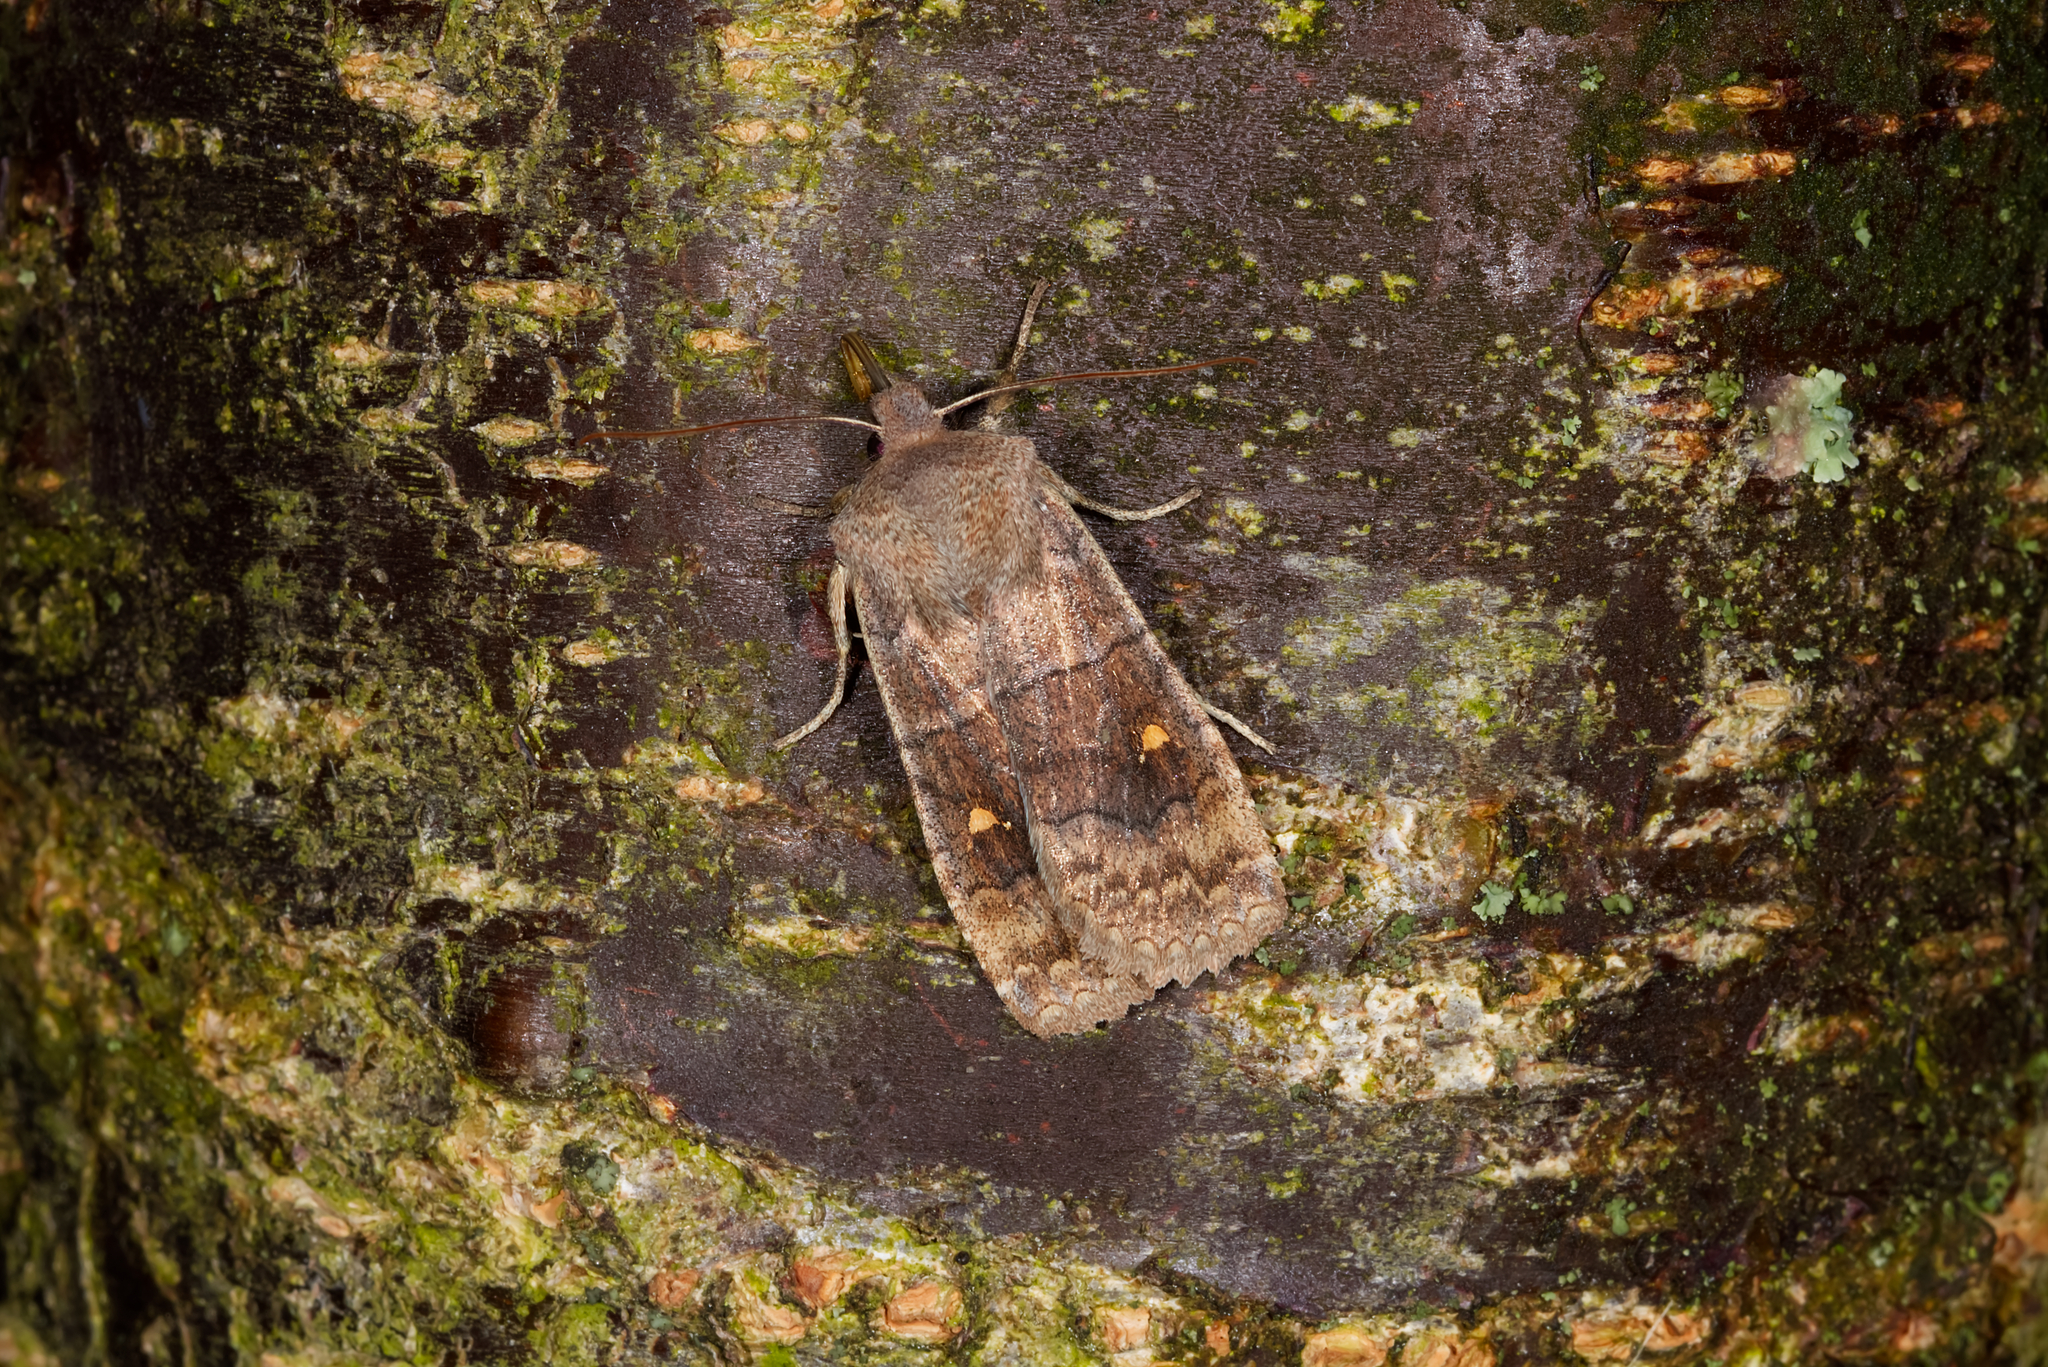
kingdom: Animalia
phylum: Arthropoda
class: Insecta
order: Lepidoptera
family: Noctuidae
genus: Eupsilia
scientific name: Eupsilia transversa
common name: Satellite
